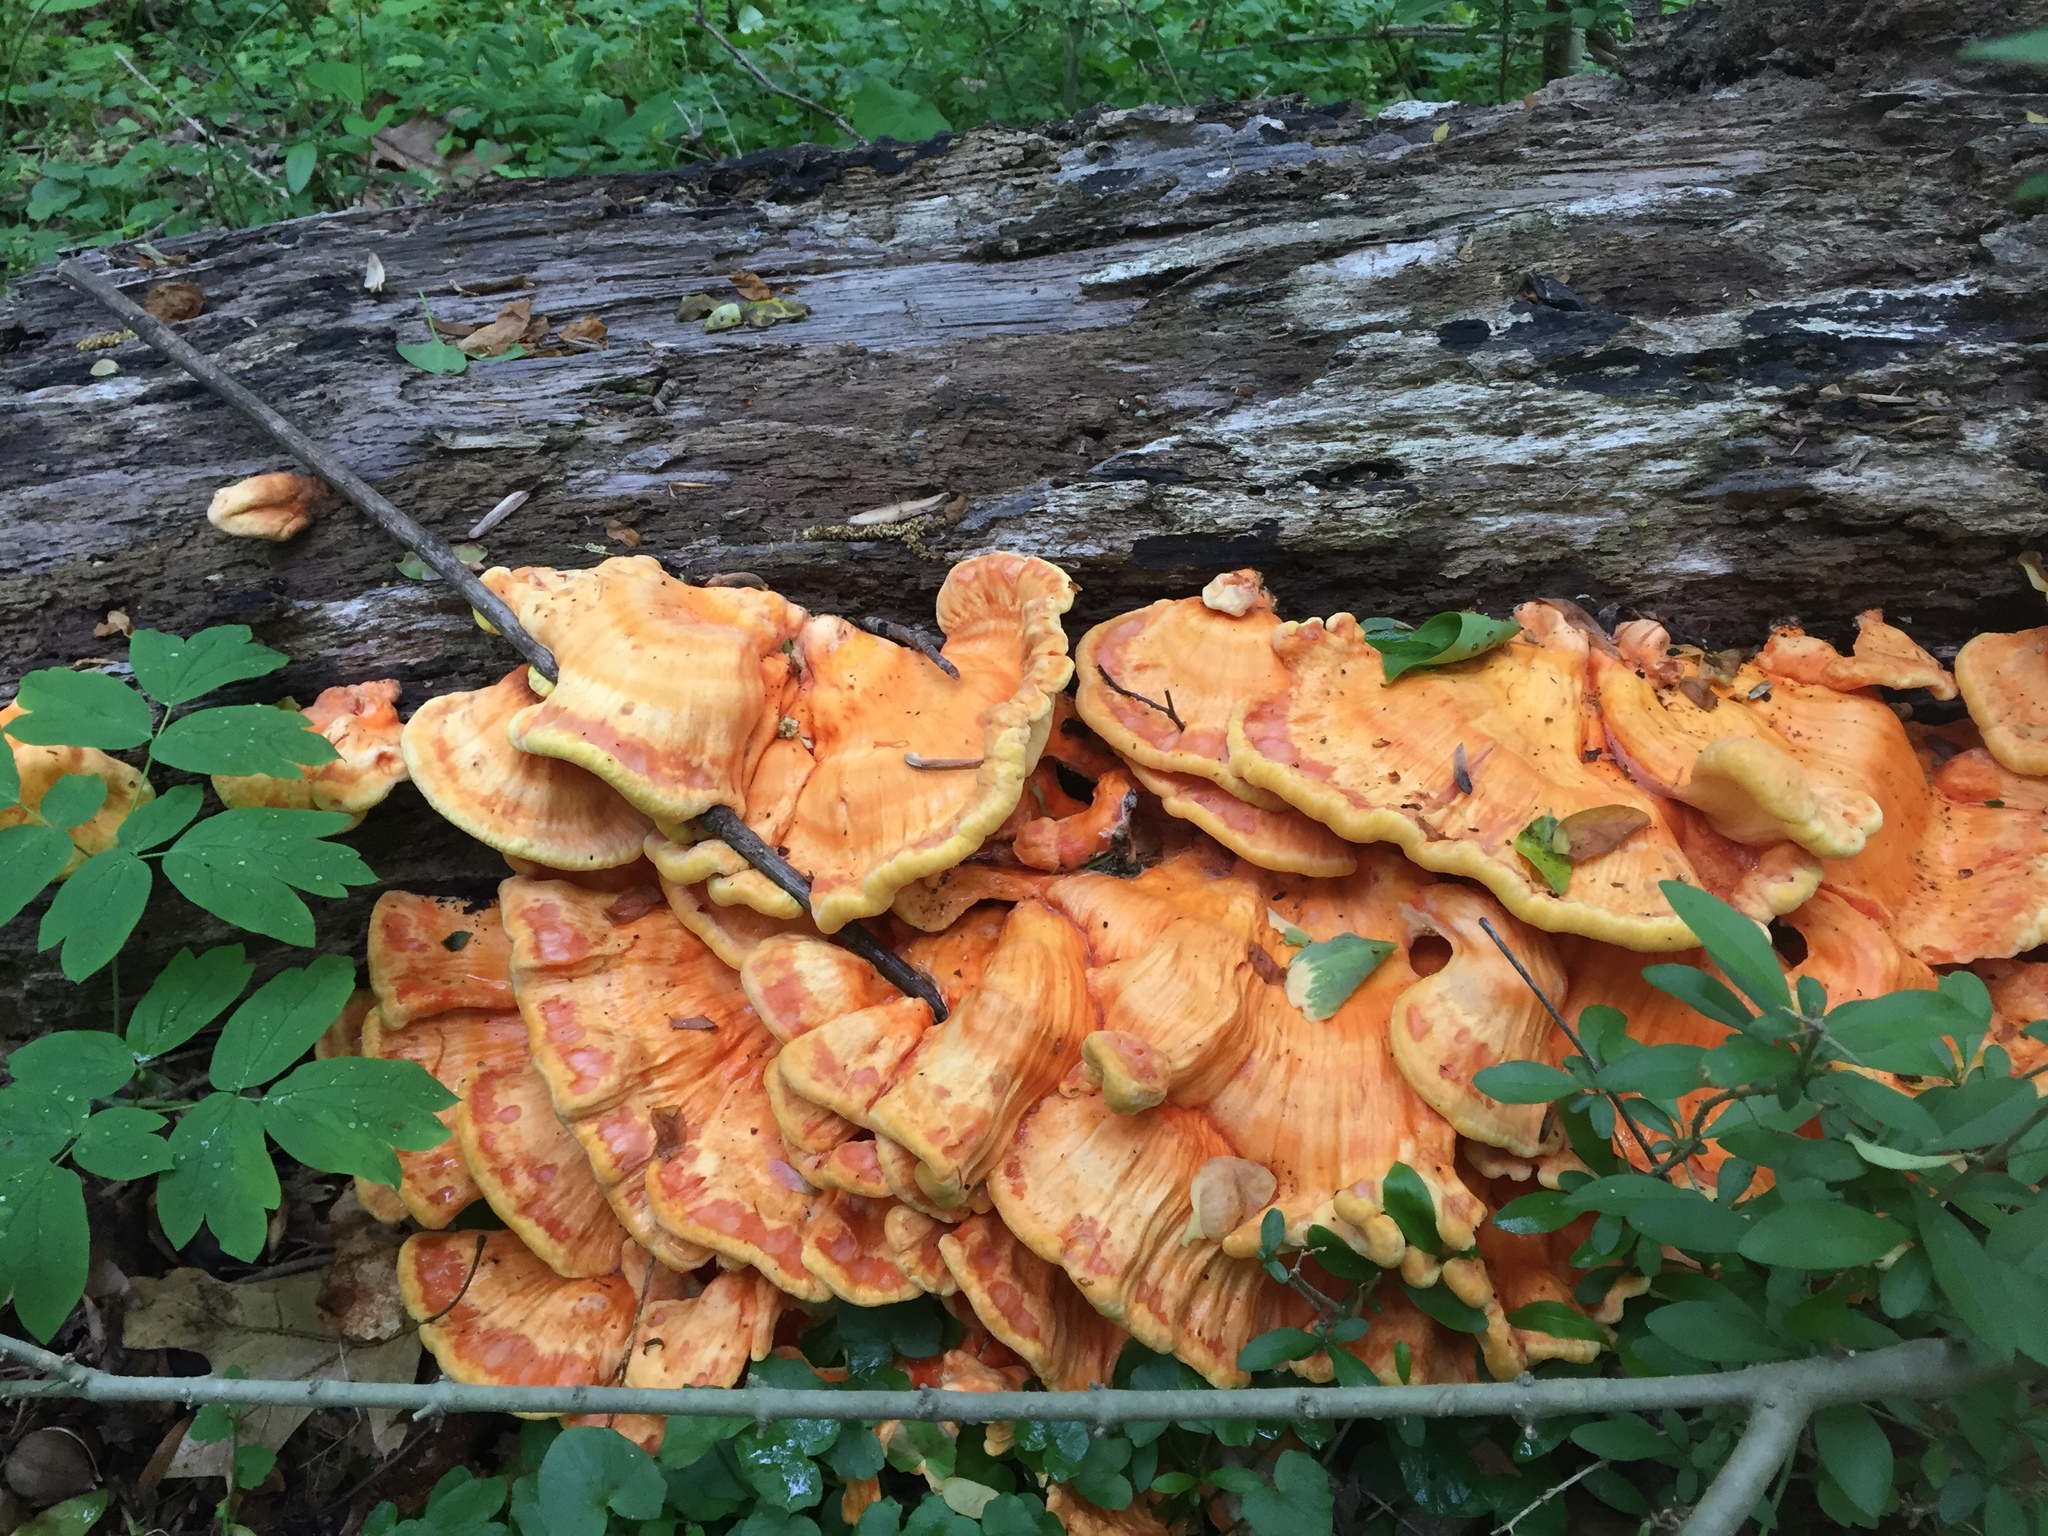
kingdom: Fungi
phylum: Basidiomycota
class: Agaricomycetes
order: Polyporales
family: Laetiporaceae
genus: Laetiporus
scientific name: Laetiporus sulphureus
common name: Chicken of the woods
